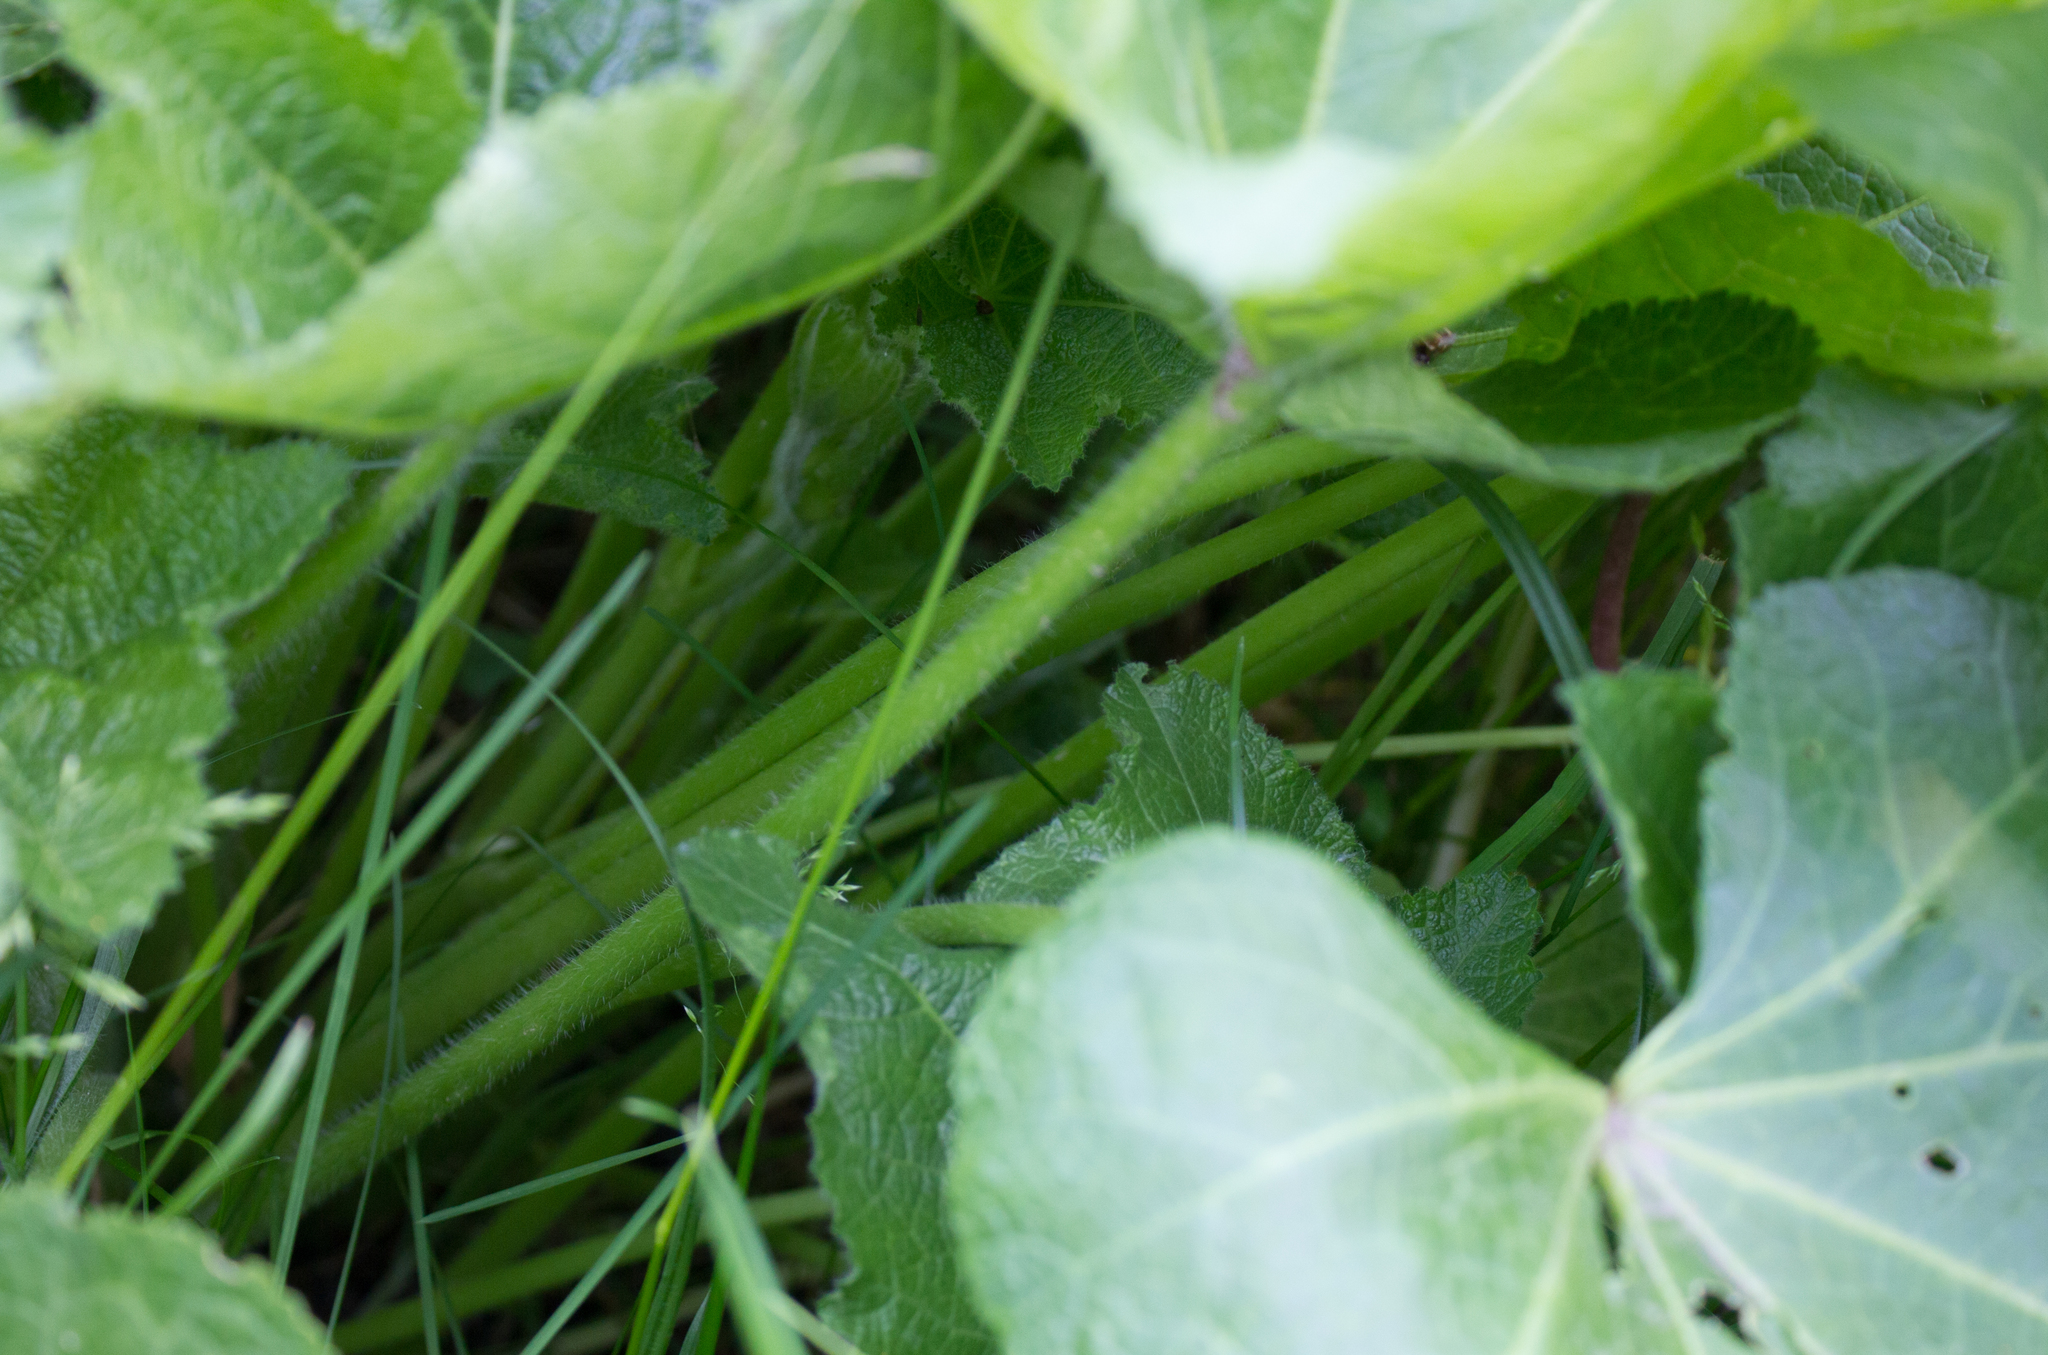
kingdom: Plantae
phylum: Tracheophyta
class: Magnoliopsida
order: Malvales
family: Malvaceae
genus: Alcea
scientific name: Alcea rosea
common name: Hollyhock
